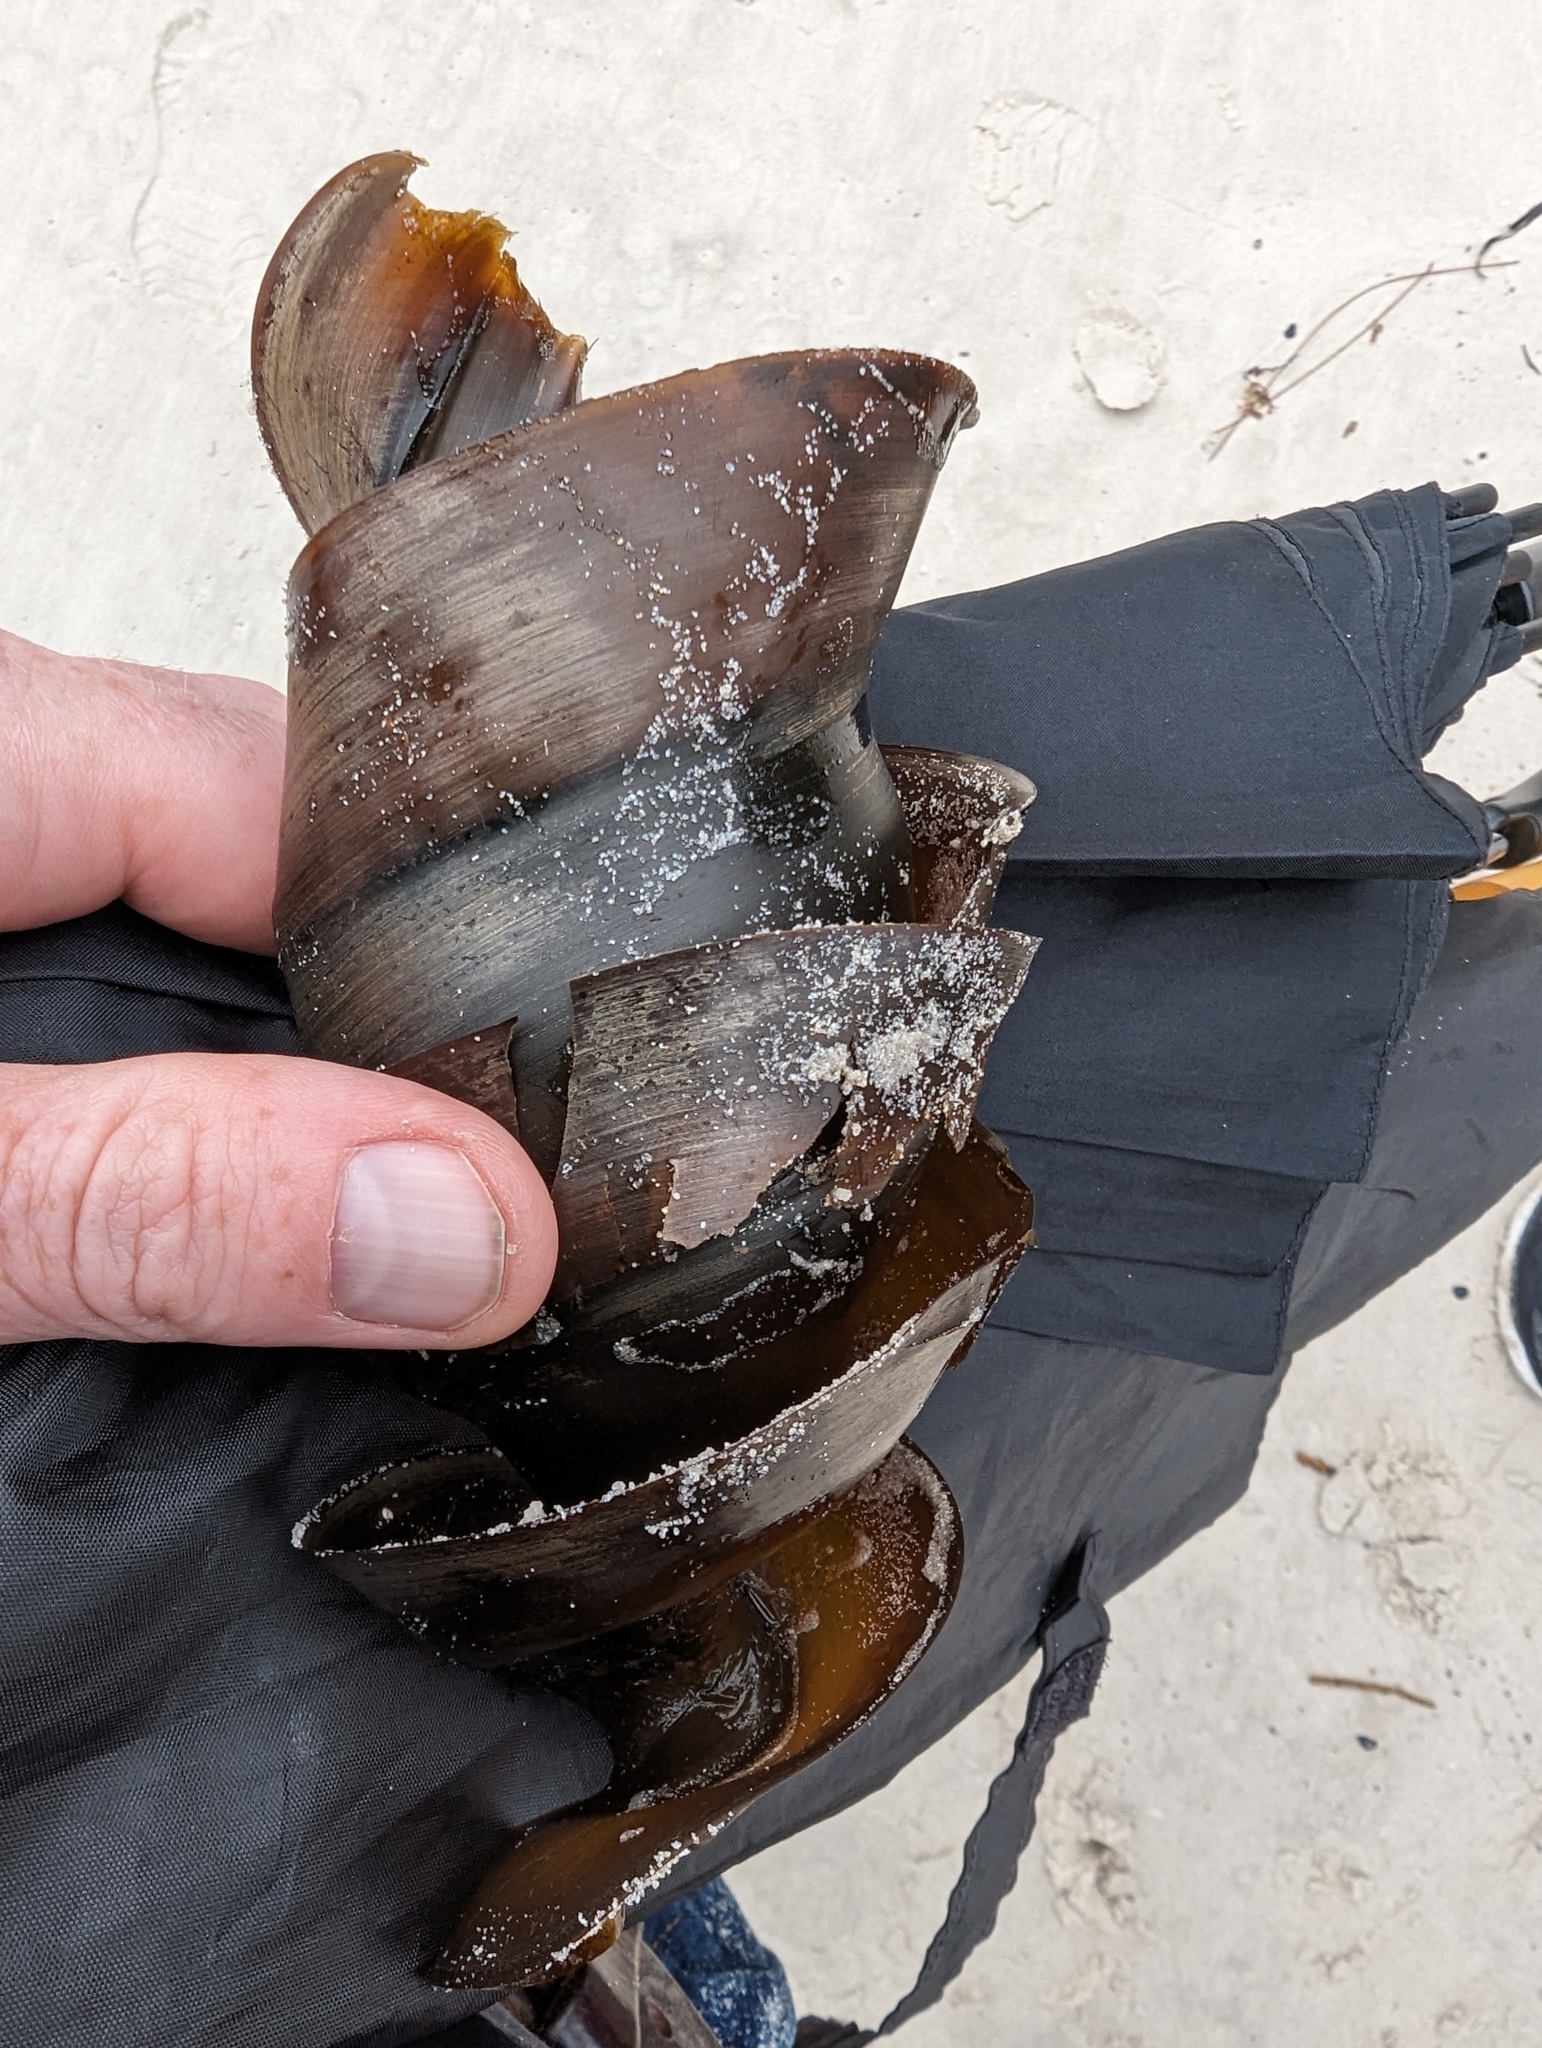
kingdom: Animalia
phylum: Chordata
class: Elasmobranchii
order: Heterodontiformes
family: Heterodontidae
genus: Heterodontus
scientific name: Heterodontus portusjacksoni
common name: Port jackson shark
